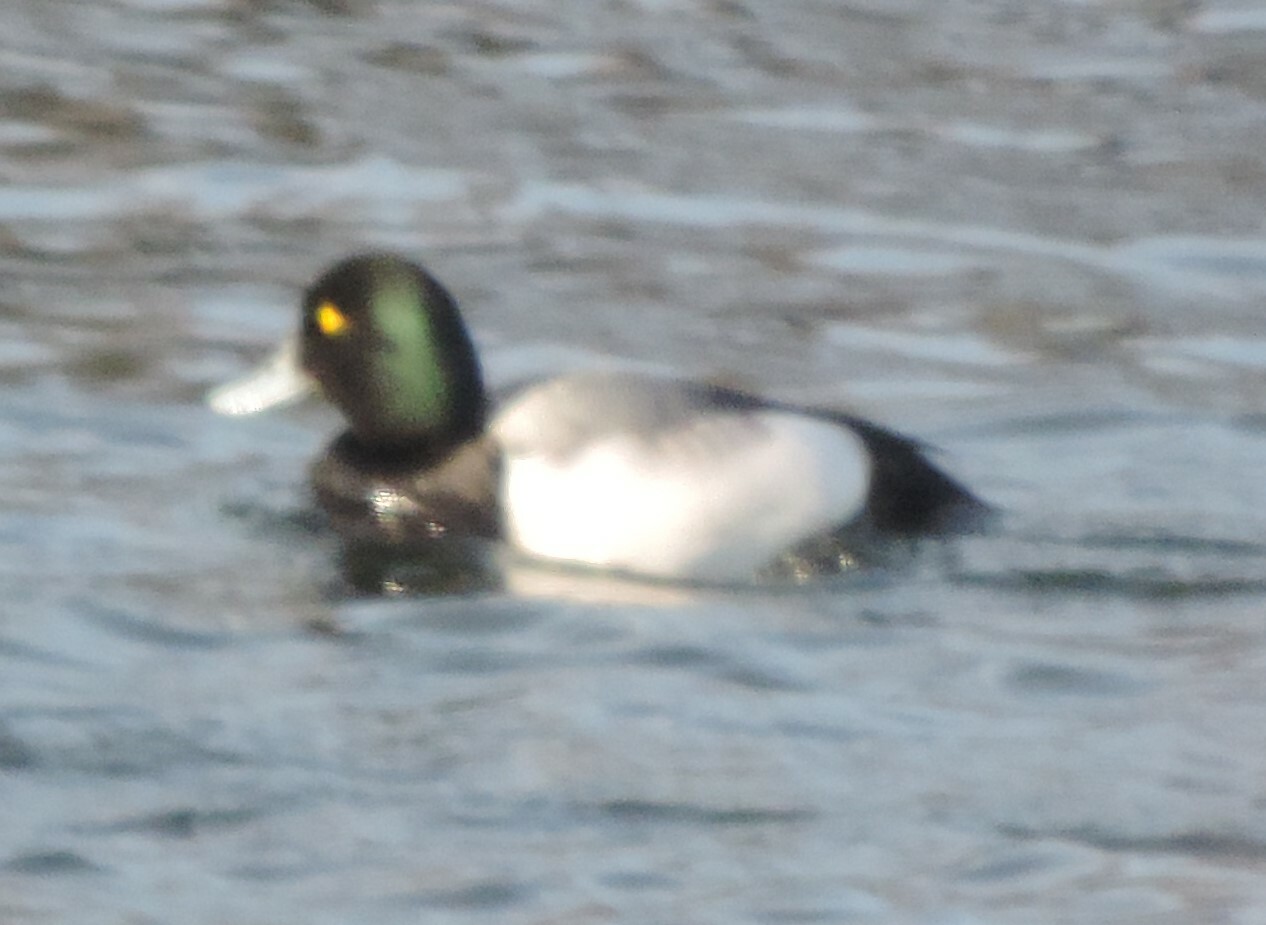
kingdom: Animalia
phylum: Chordata
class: Aves
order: Anseriformes
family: Anatidae
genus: Aythya
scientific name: Aythya marila
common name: Greater scaup
